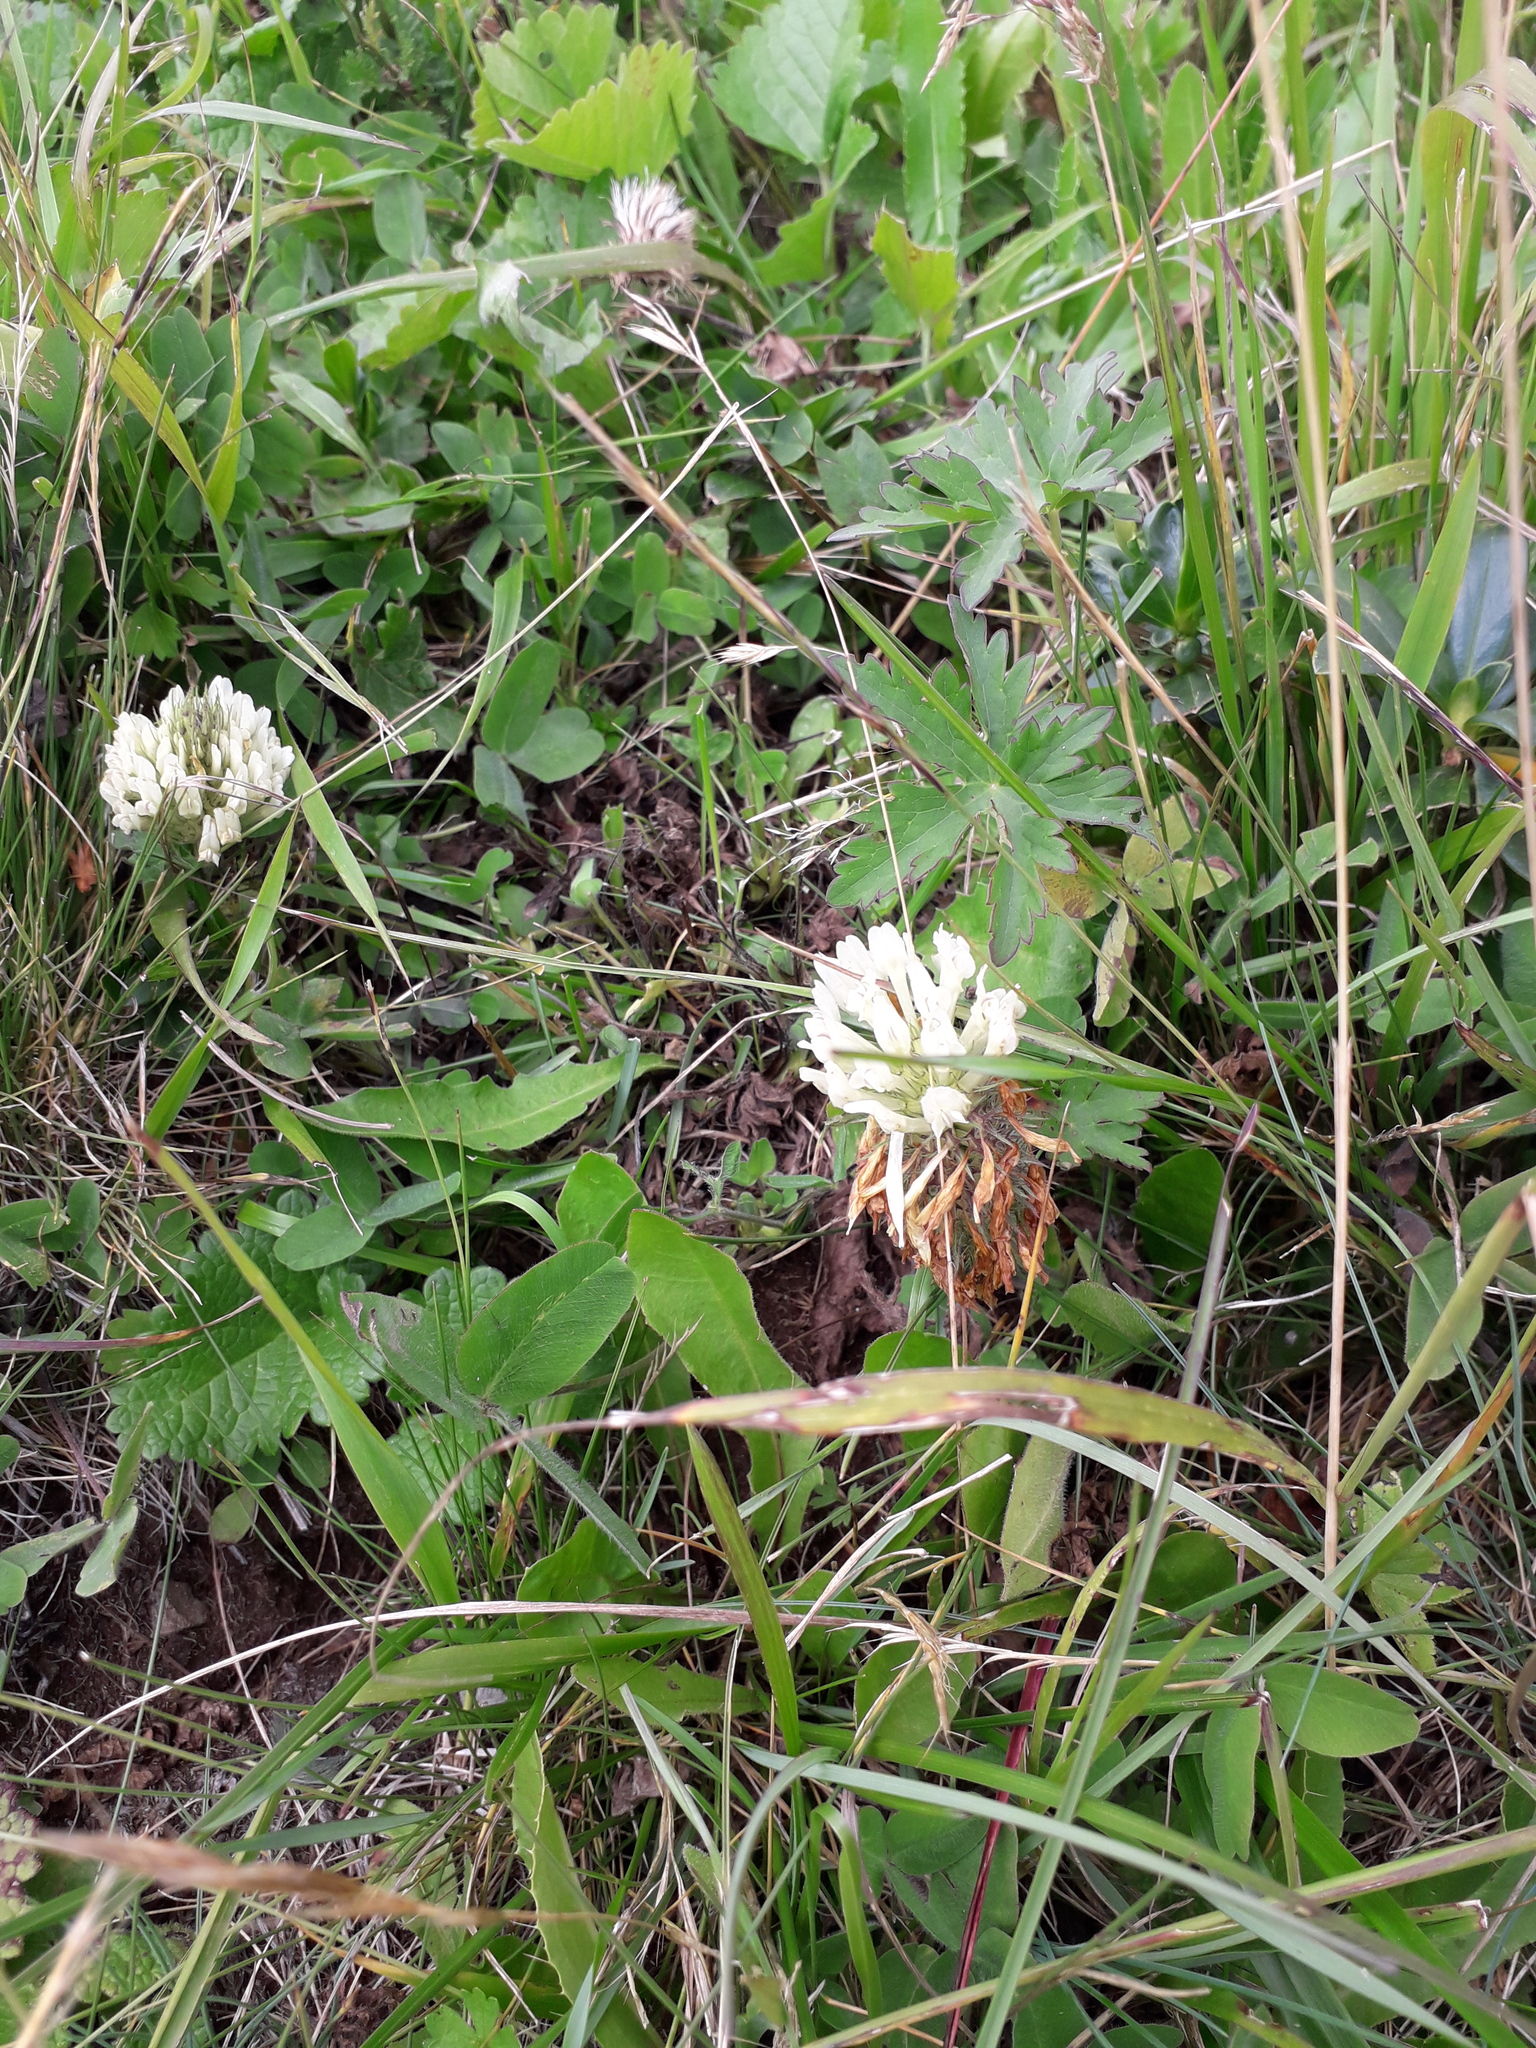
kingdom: Plantae
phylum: Tracheophyta
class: Magnoliopsida
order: Fabales
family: Fabaceae
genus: Trifolium
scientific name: Trifolium canescens
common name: Graying clover
